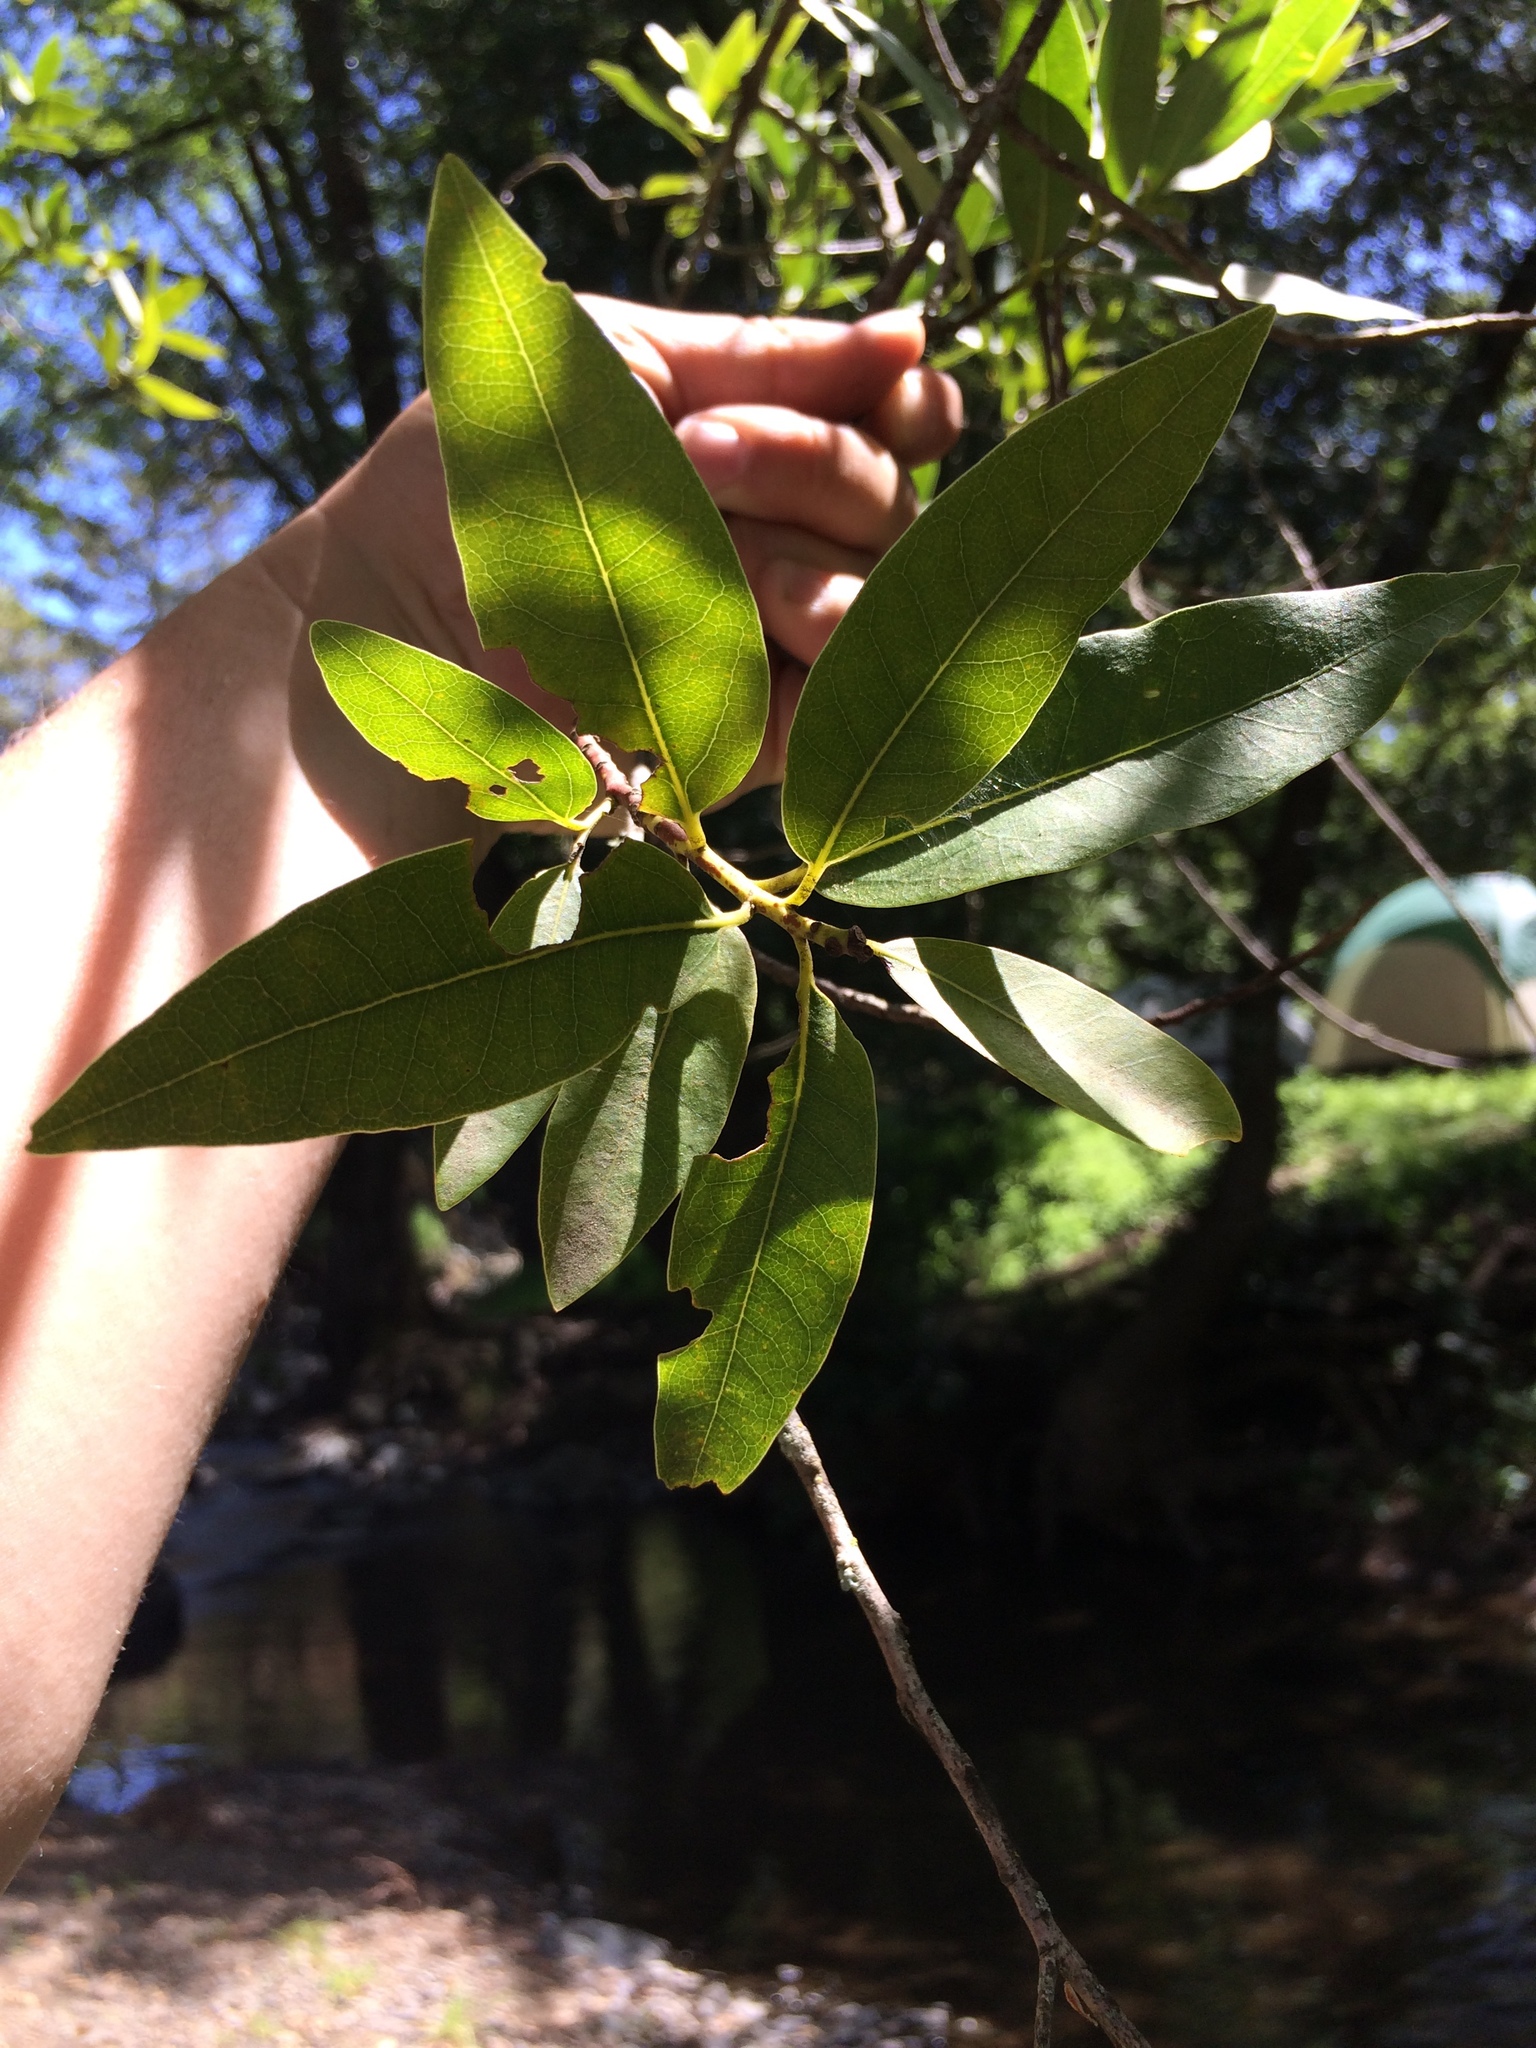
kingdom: Plantae
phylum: Tracheophyta
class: Magnoliopsida
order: Laurales
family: Lauraceae
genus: Umbellularia
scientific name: Umbellularia californica
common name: California bay
